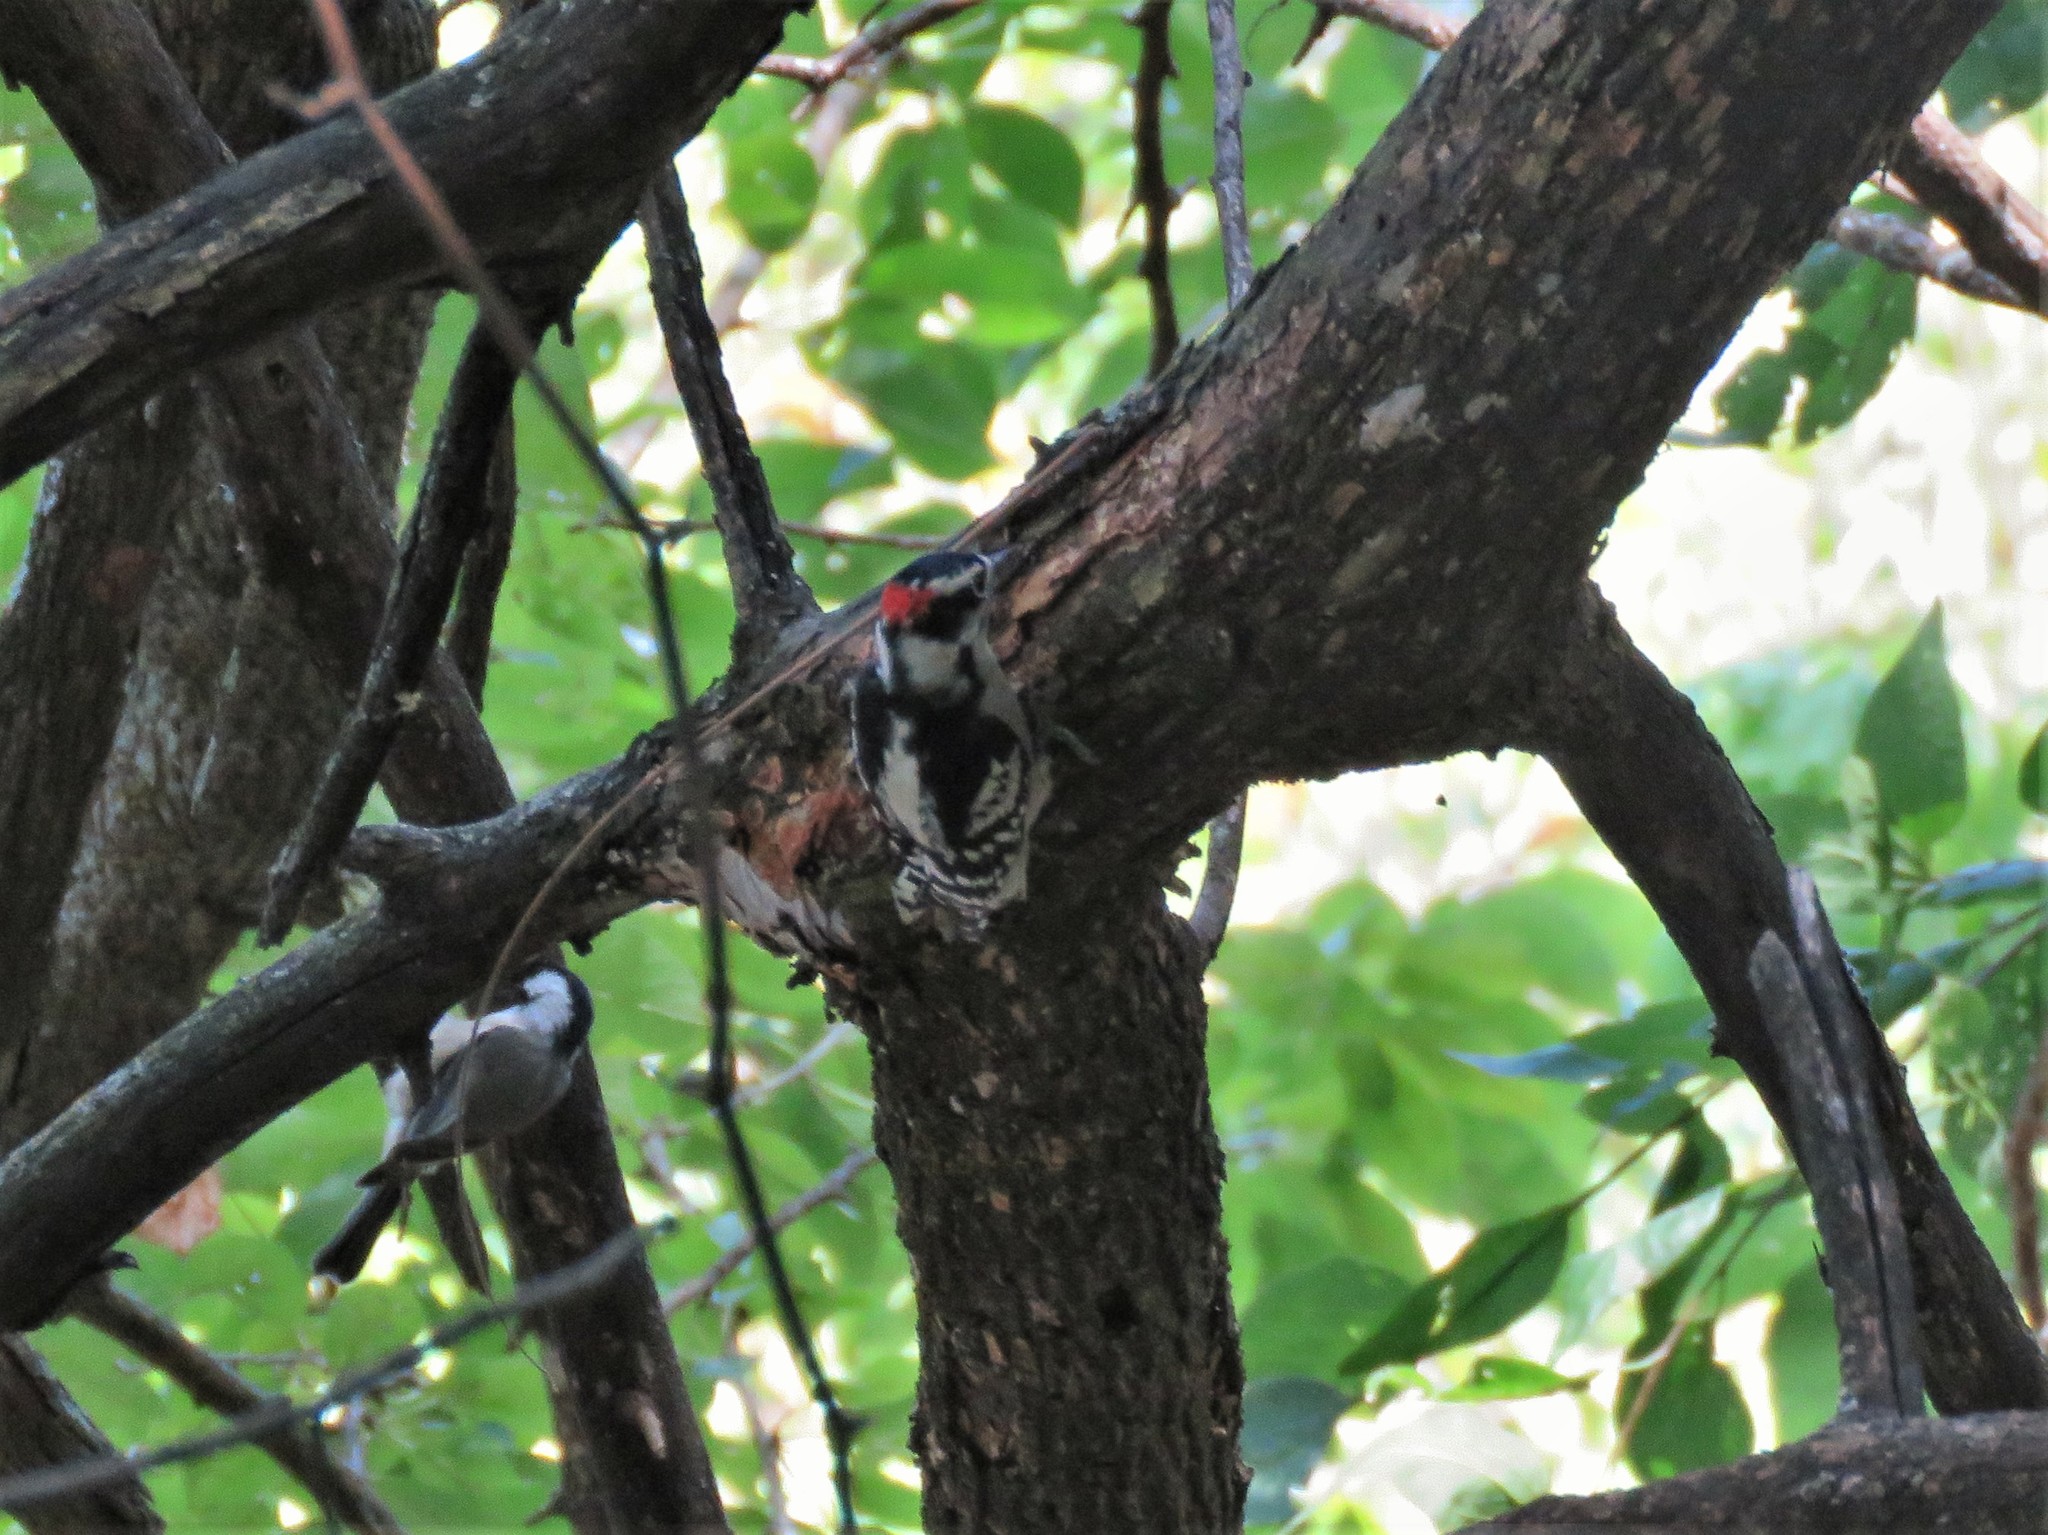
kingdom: Animalia
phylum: Chordata
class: Aves
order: Piciformes
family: Picidae
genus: Dryobates
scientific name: Dryobates pubescens
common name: Downy woodpecker
